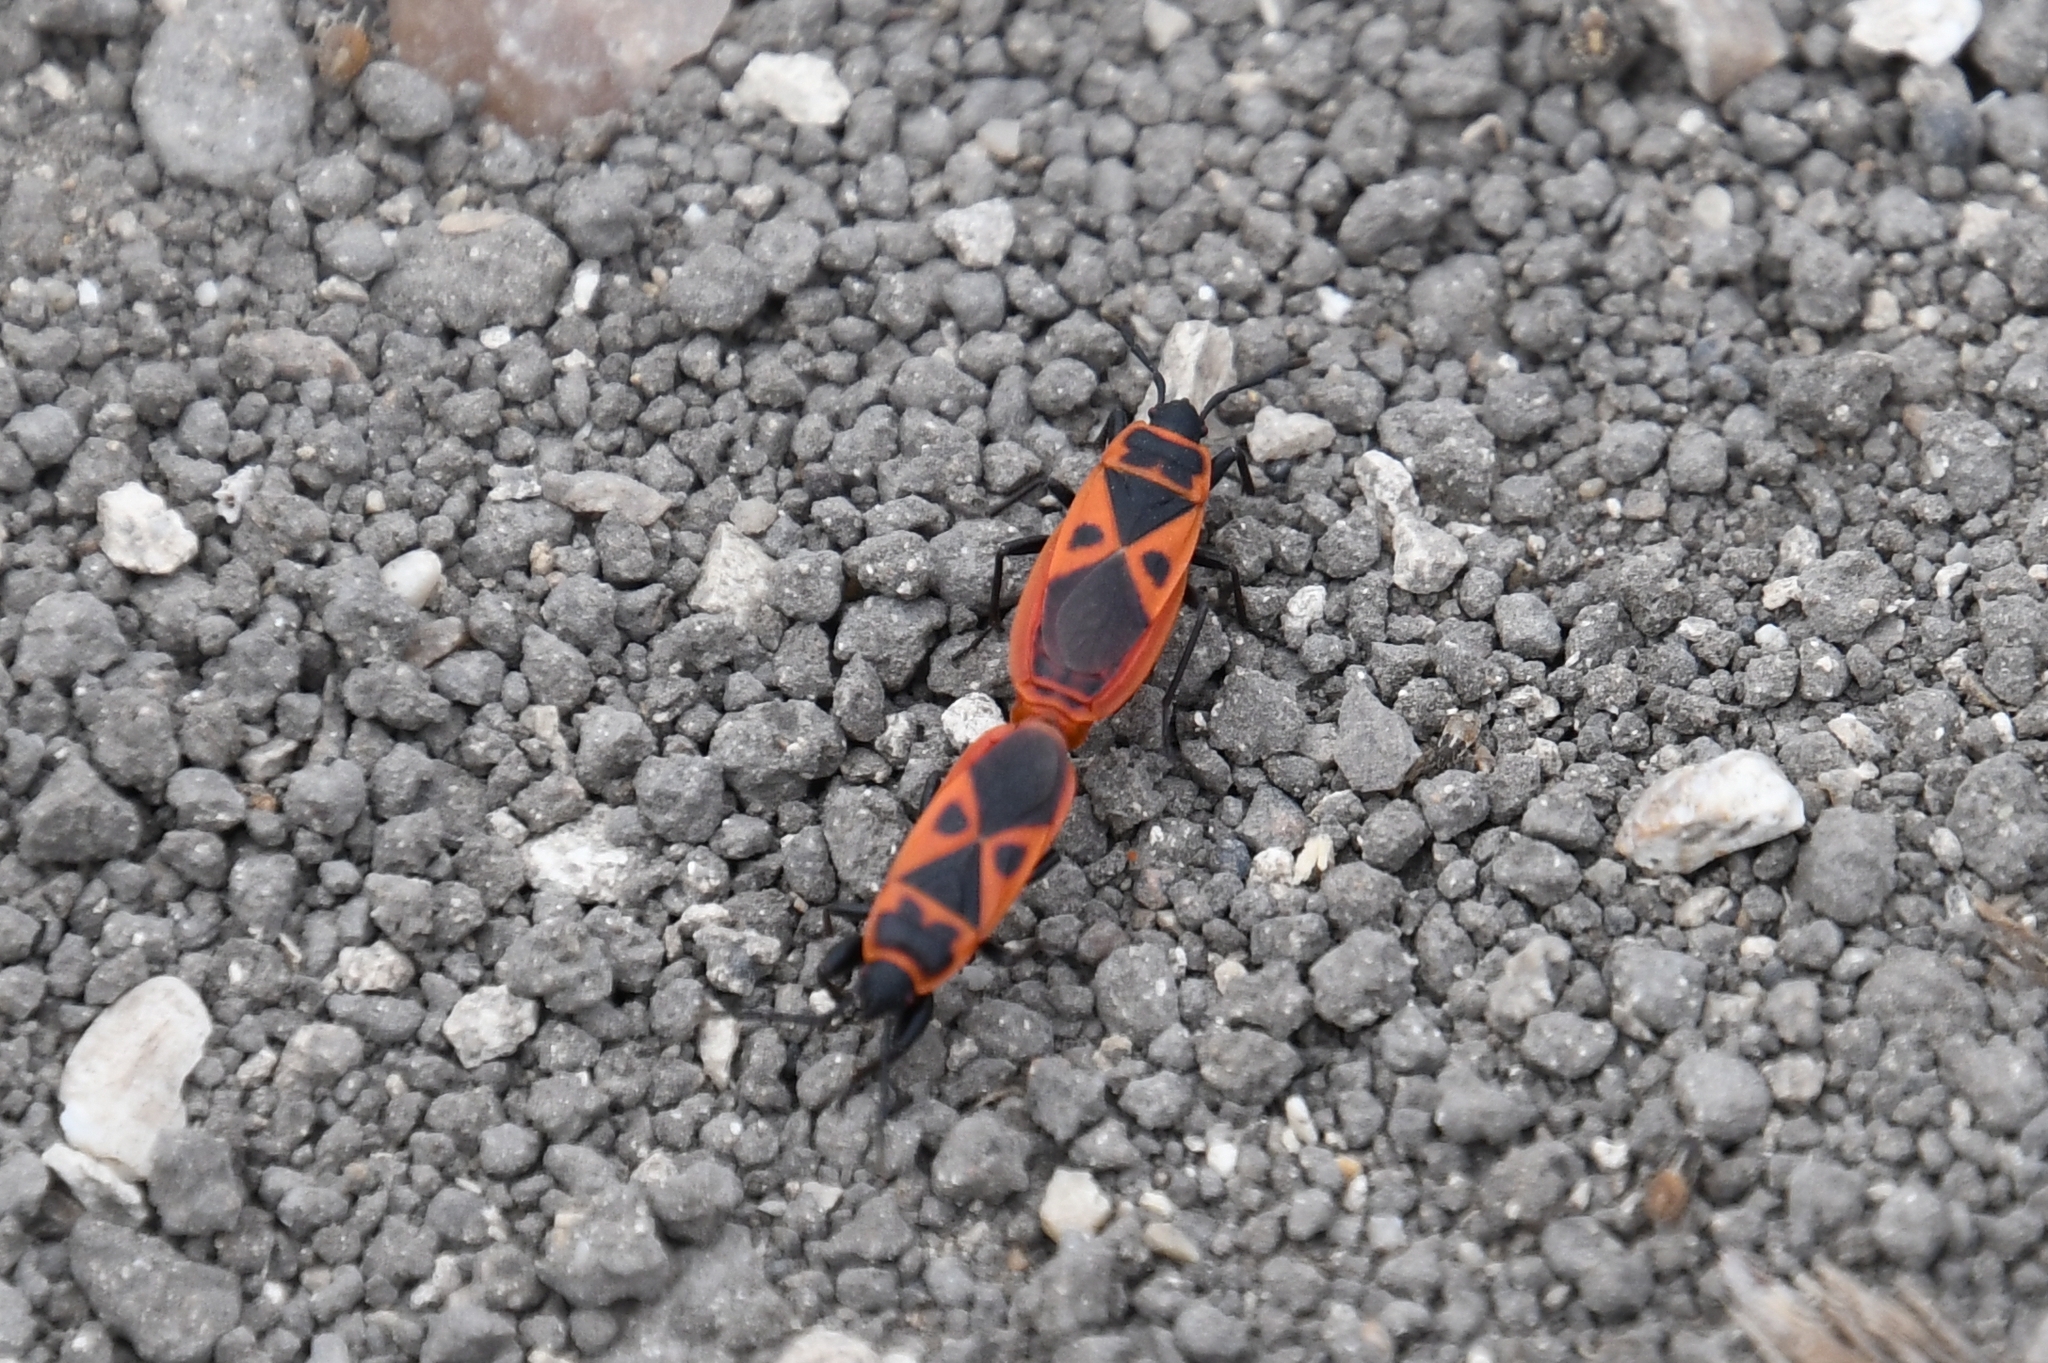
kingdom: Animalia
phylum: Arthropoda
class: Insecta
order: Hemiptera
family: Pyrrhocoridae
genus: Scantius
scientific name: Scantius aegyptius
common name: Red bug
